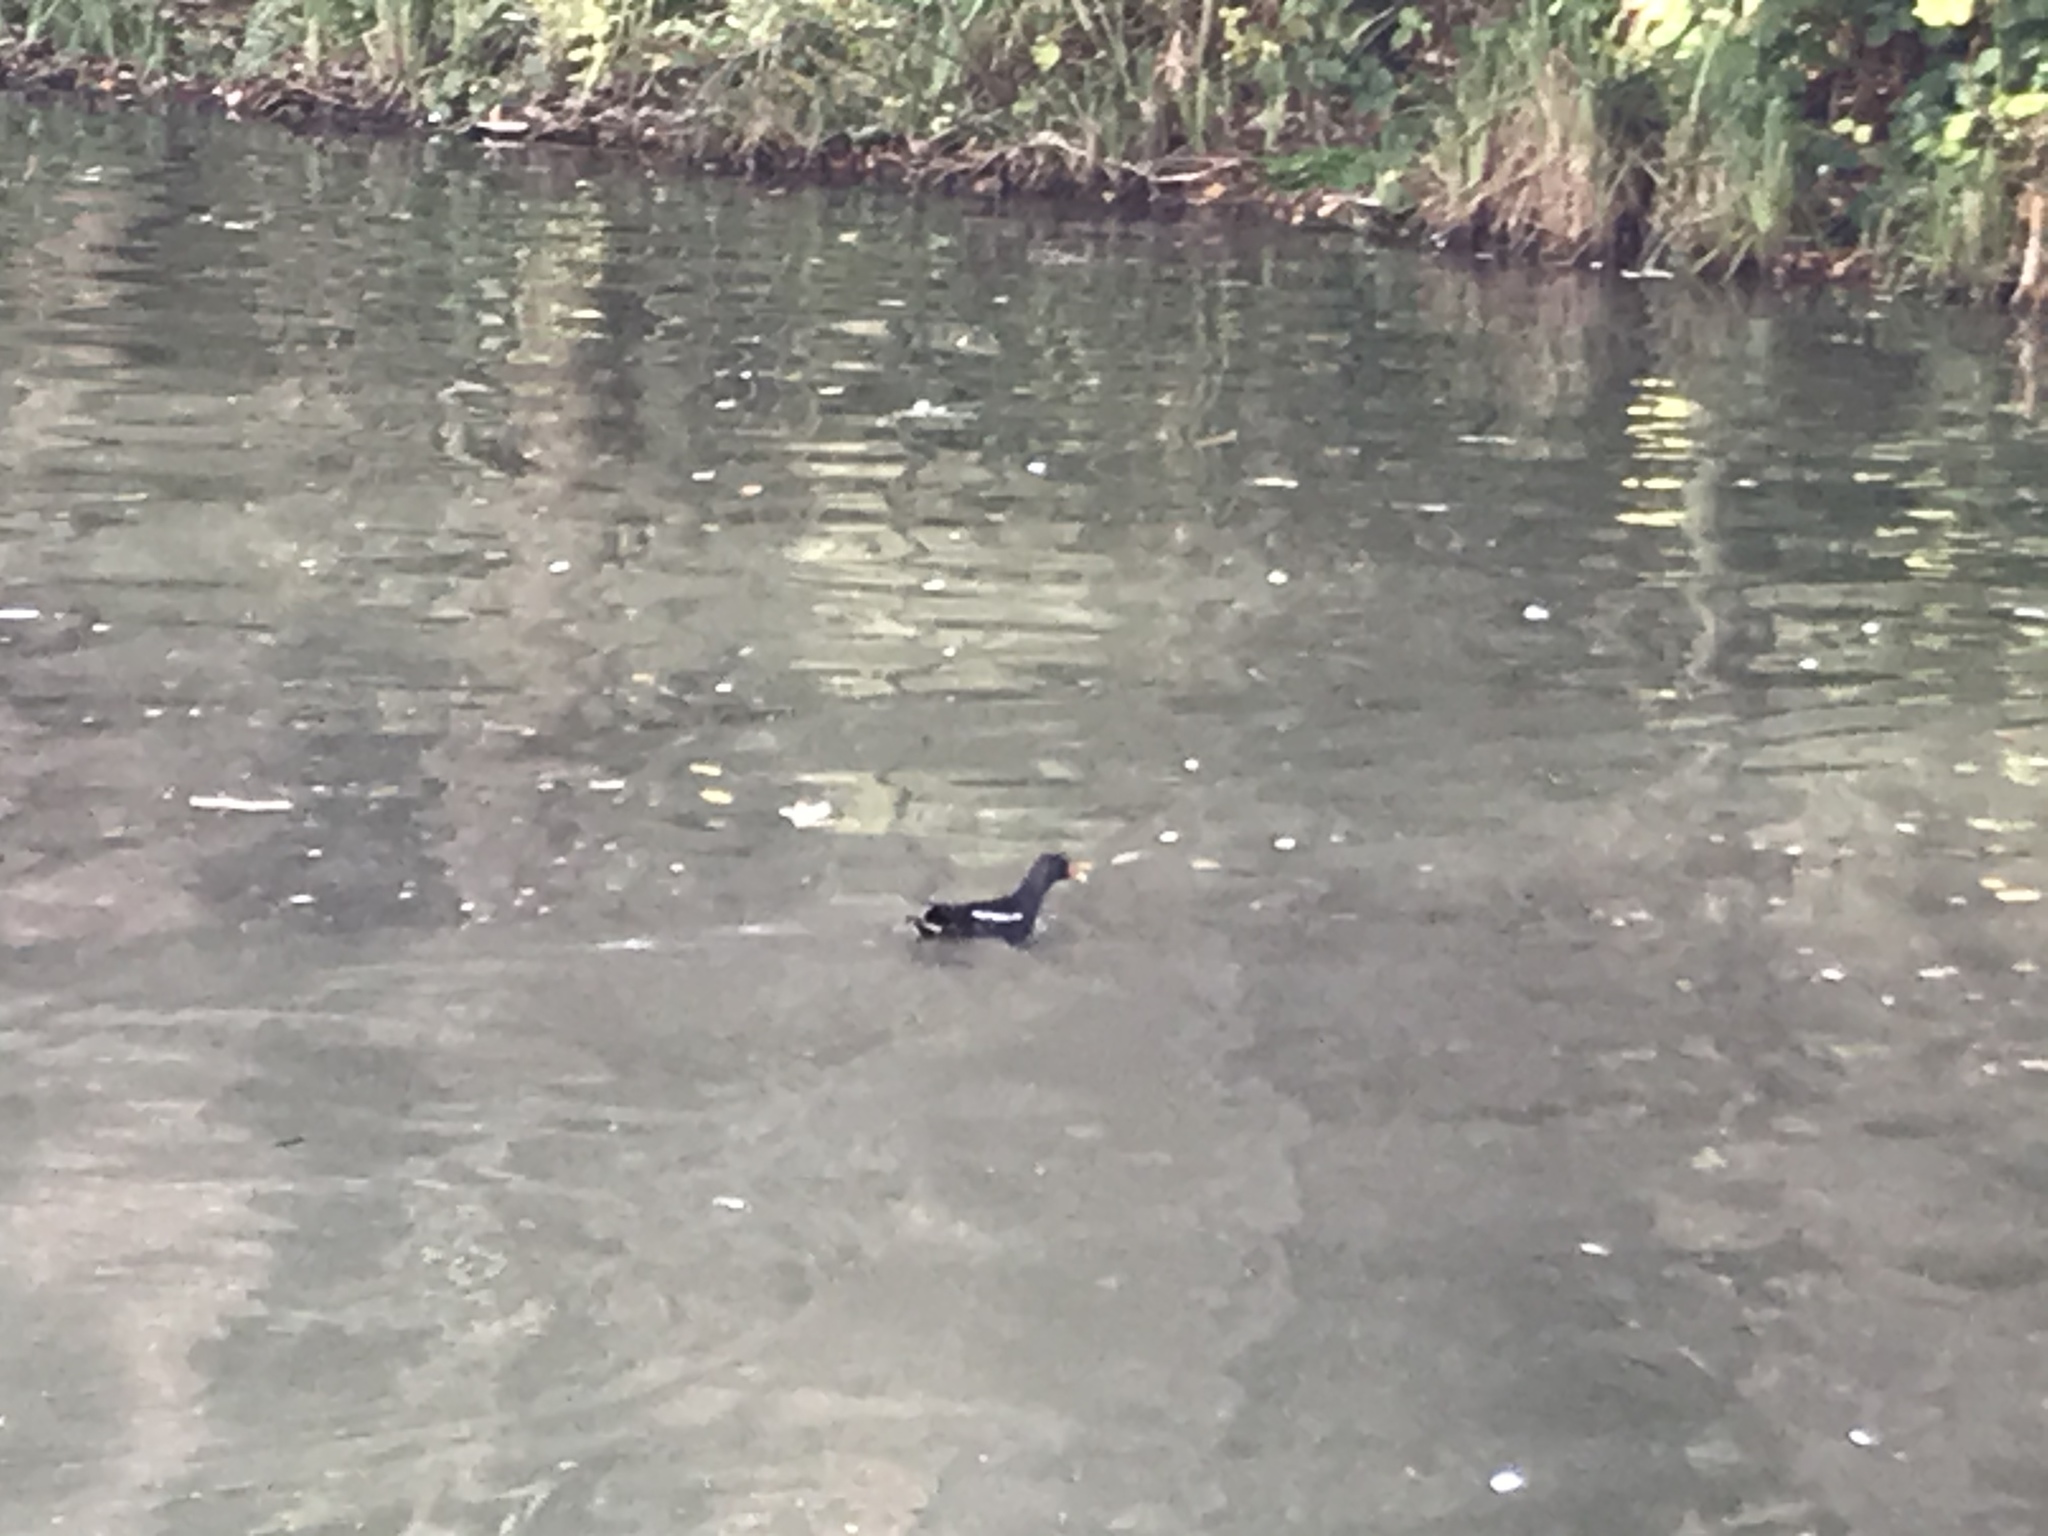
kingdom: Animalia
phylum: Chordata
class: Aves
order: Gruiformes
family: Rallidae
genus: Gallinula
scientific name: Gallinula chloropus
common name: Common moorhen
